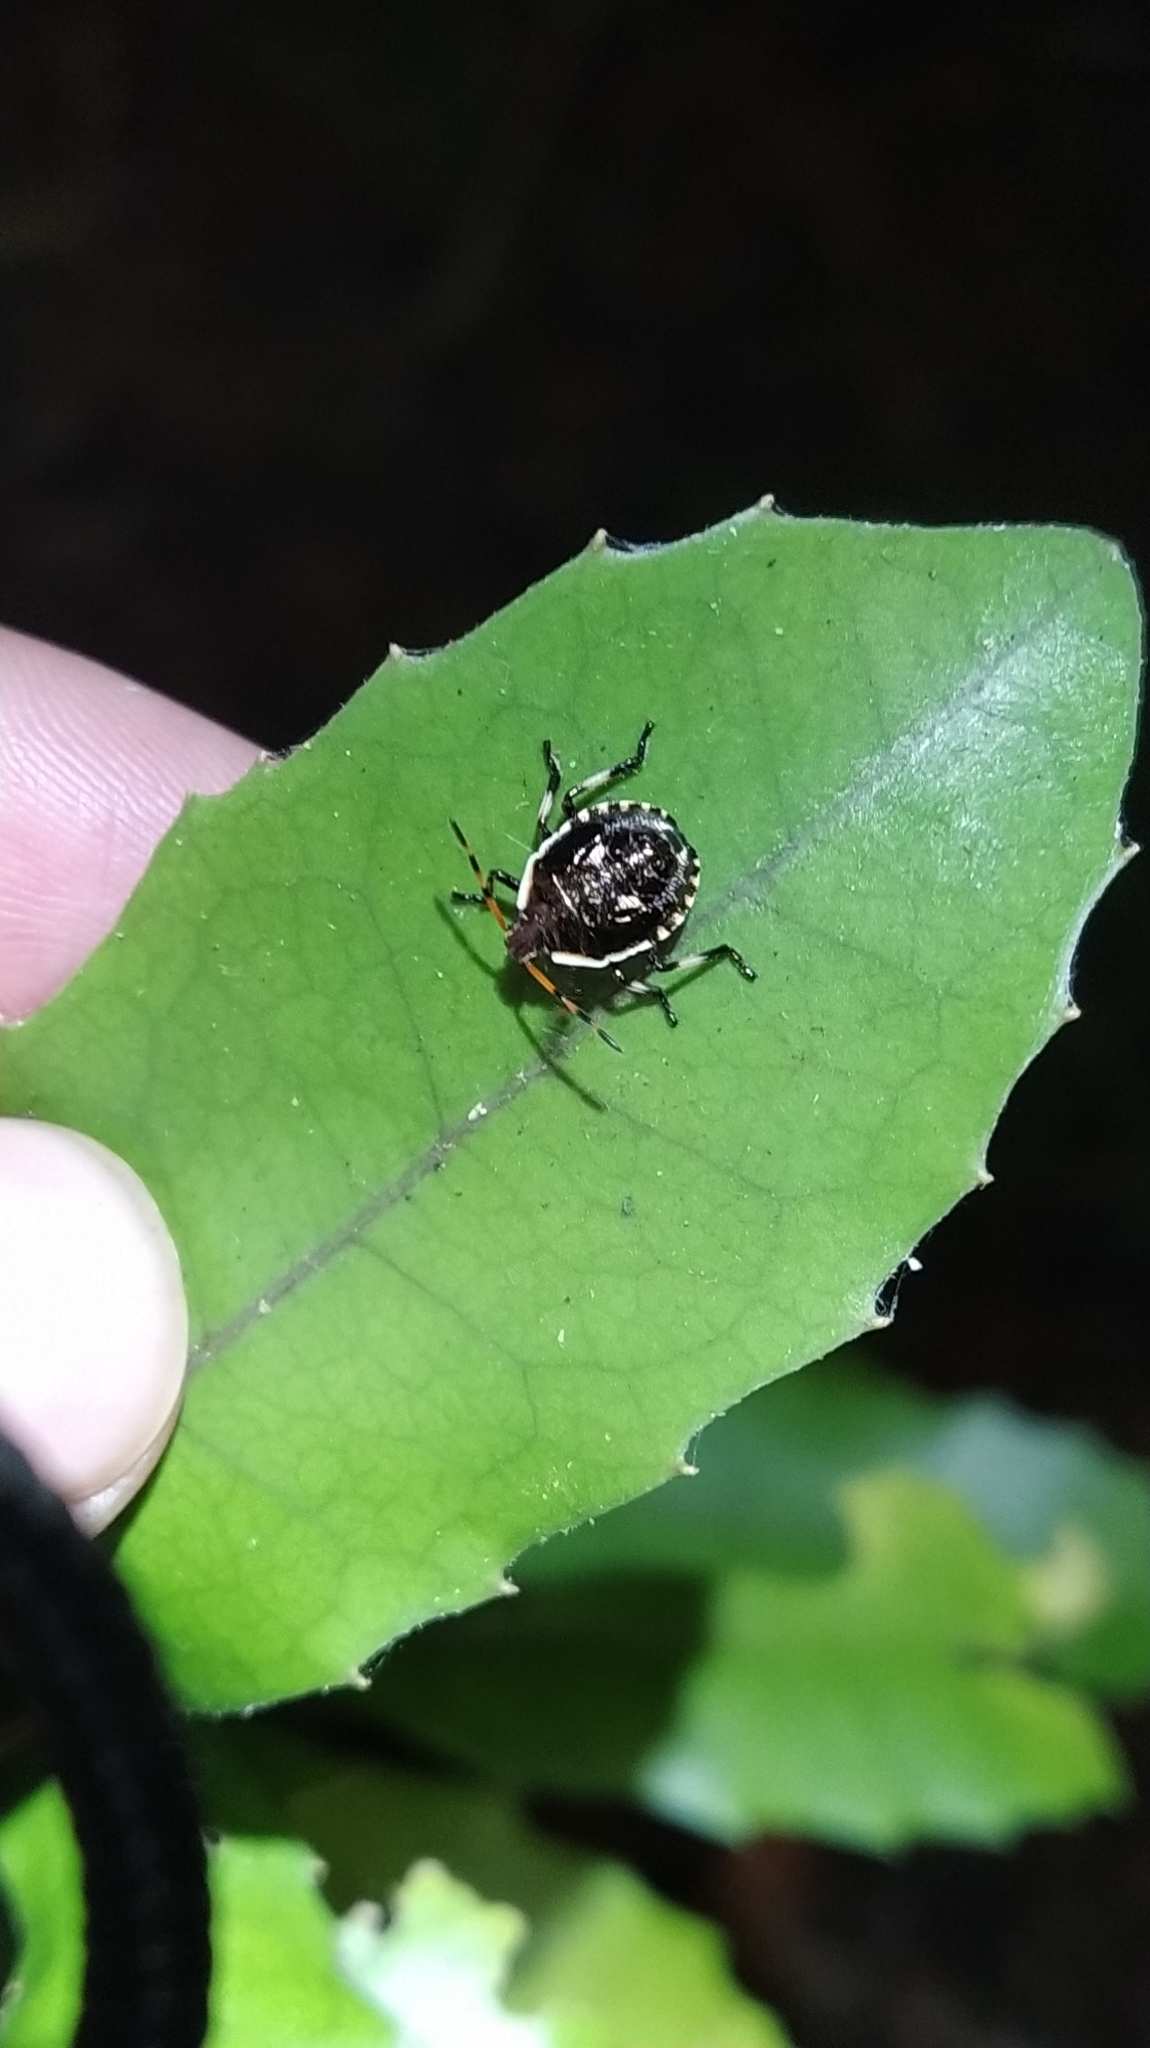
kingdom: Animalia
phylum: Arthropoda
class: Insecta
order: Hemiptera
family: Pentatomidae
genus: Cermatulus
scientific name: Cermatulus nasalis
